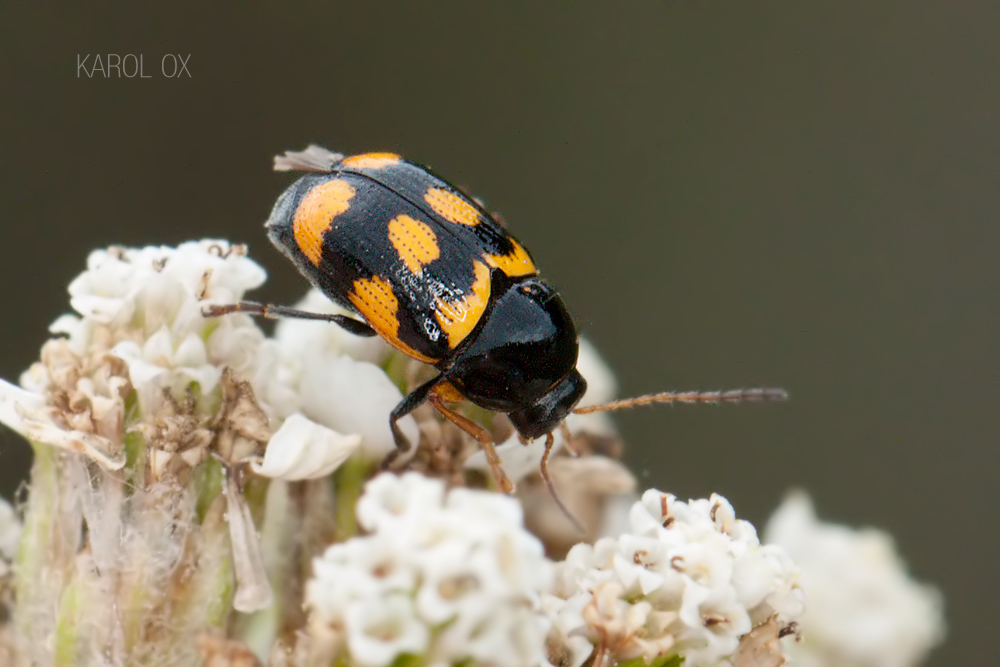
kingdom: Animalia
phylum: Arthropoda
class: Insecta
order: Coleoptera
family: Chrysomelidae
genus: Cryptocephalus
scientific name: Cryptocephalus anticus
